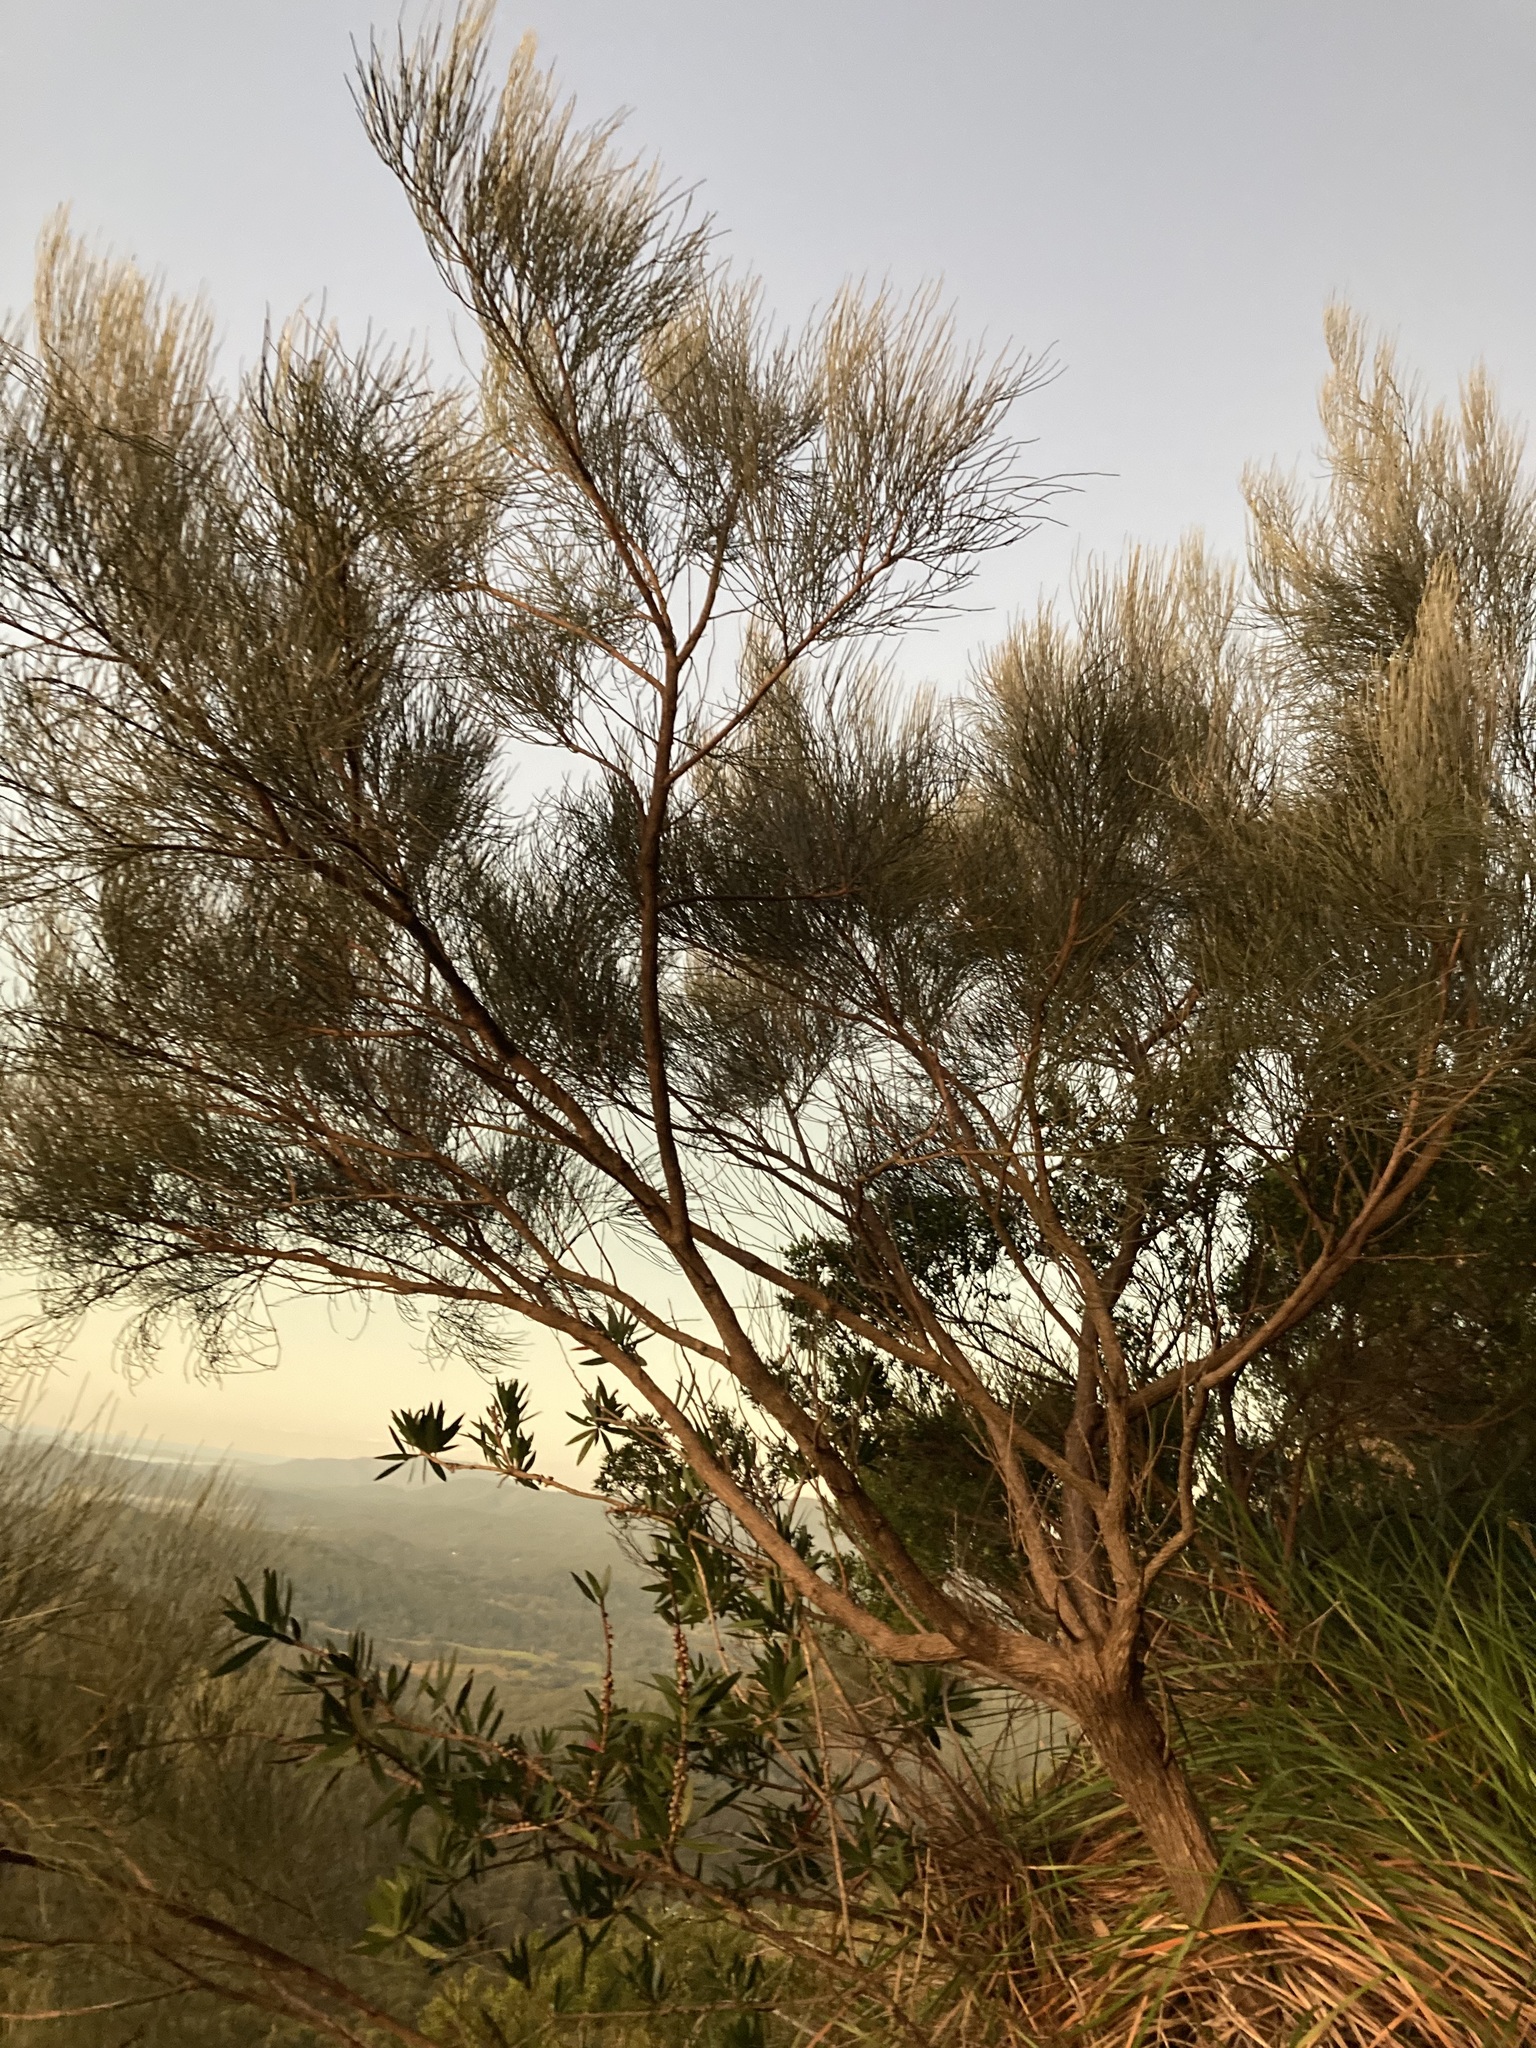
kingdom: Plantae
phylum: Tracheophyta
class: Magnoliopsida
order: Fabales
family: Fabaceae
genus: Jacksonia
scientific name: Jacksonia scoparia
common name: Dogwood
